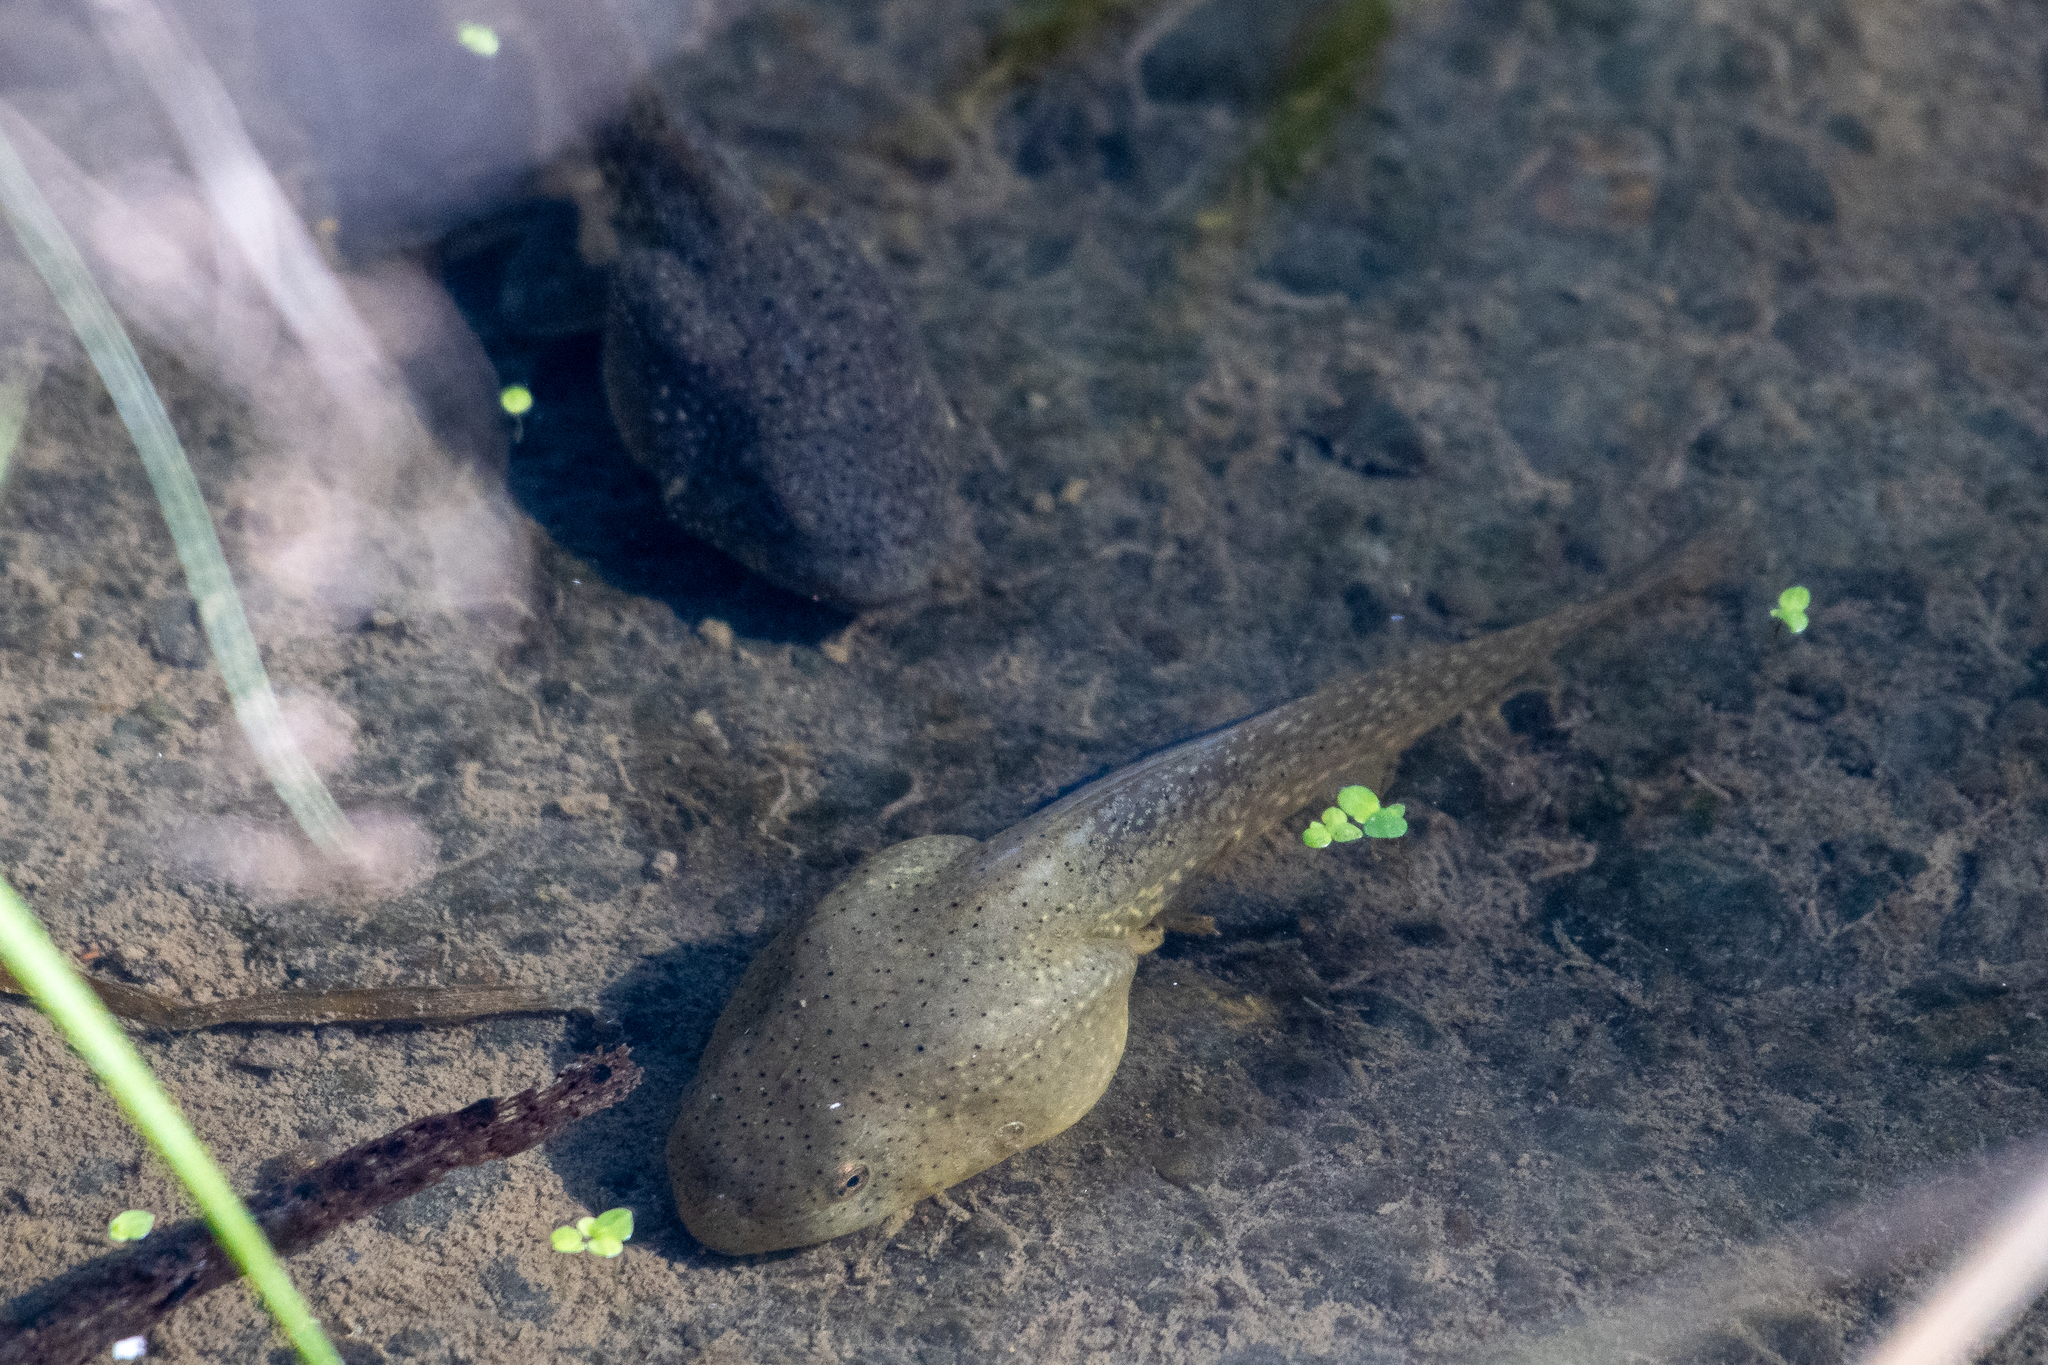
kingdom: Animalia
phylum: Chordata
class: Amphibia
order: Anura
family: Ranidae
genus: Lithobates
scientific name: Lithobates catesbeianus
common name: American bullfrog
